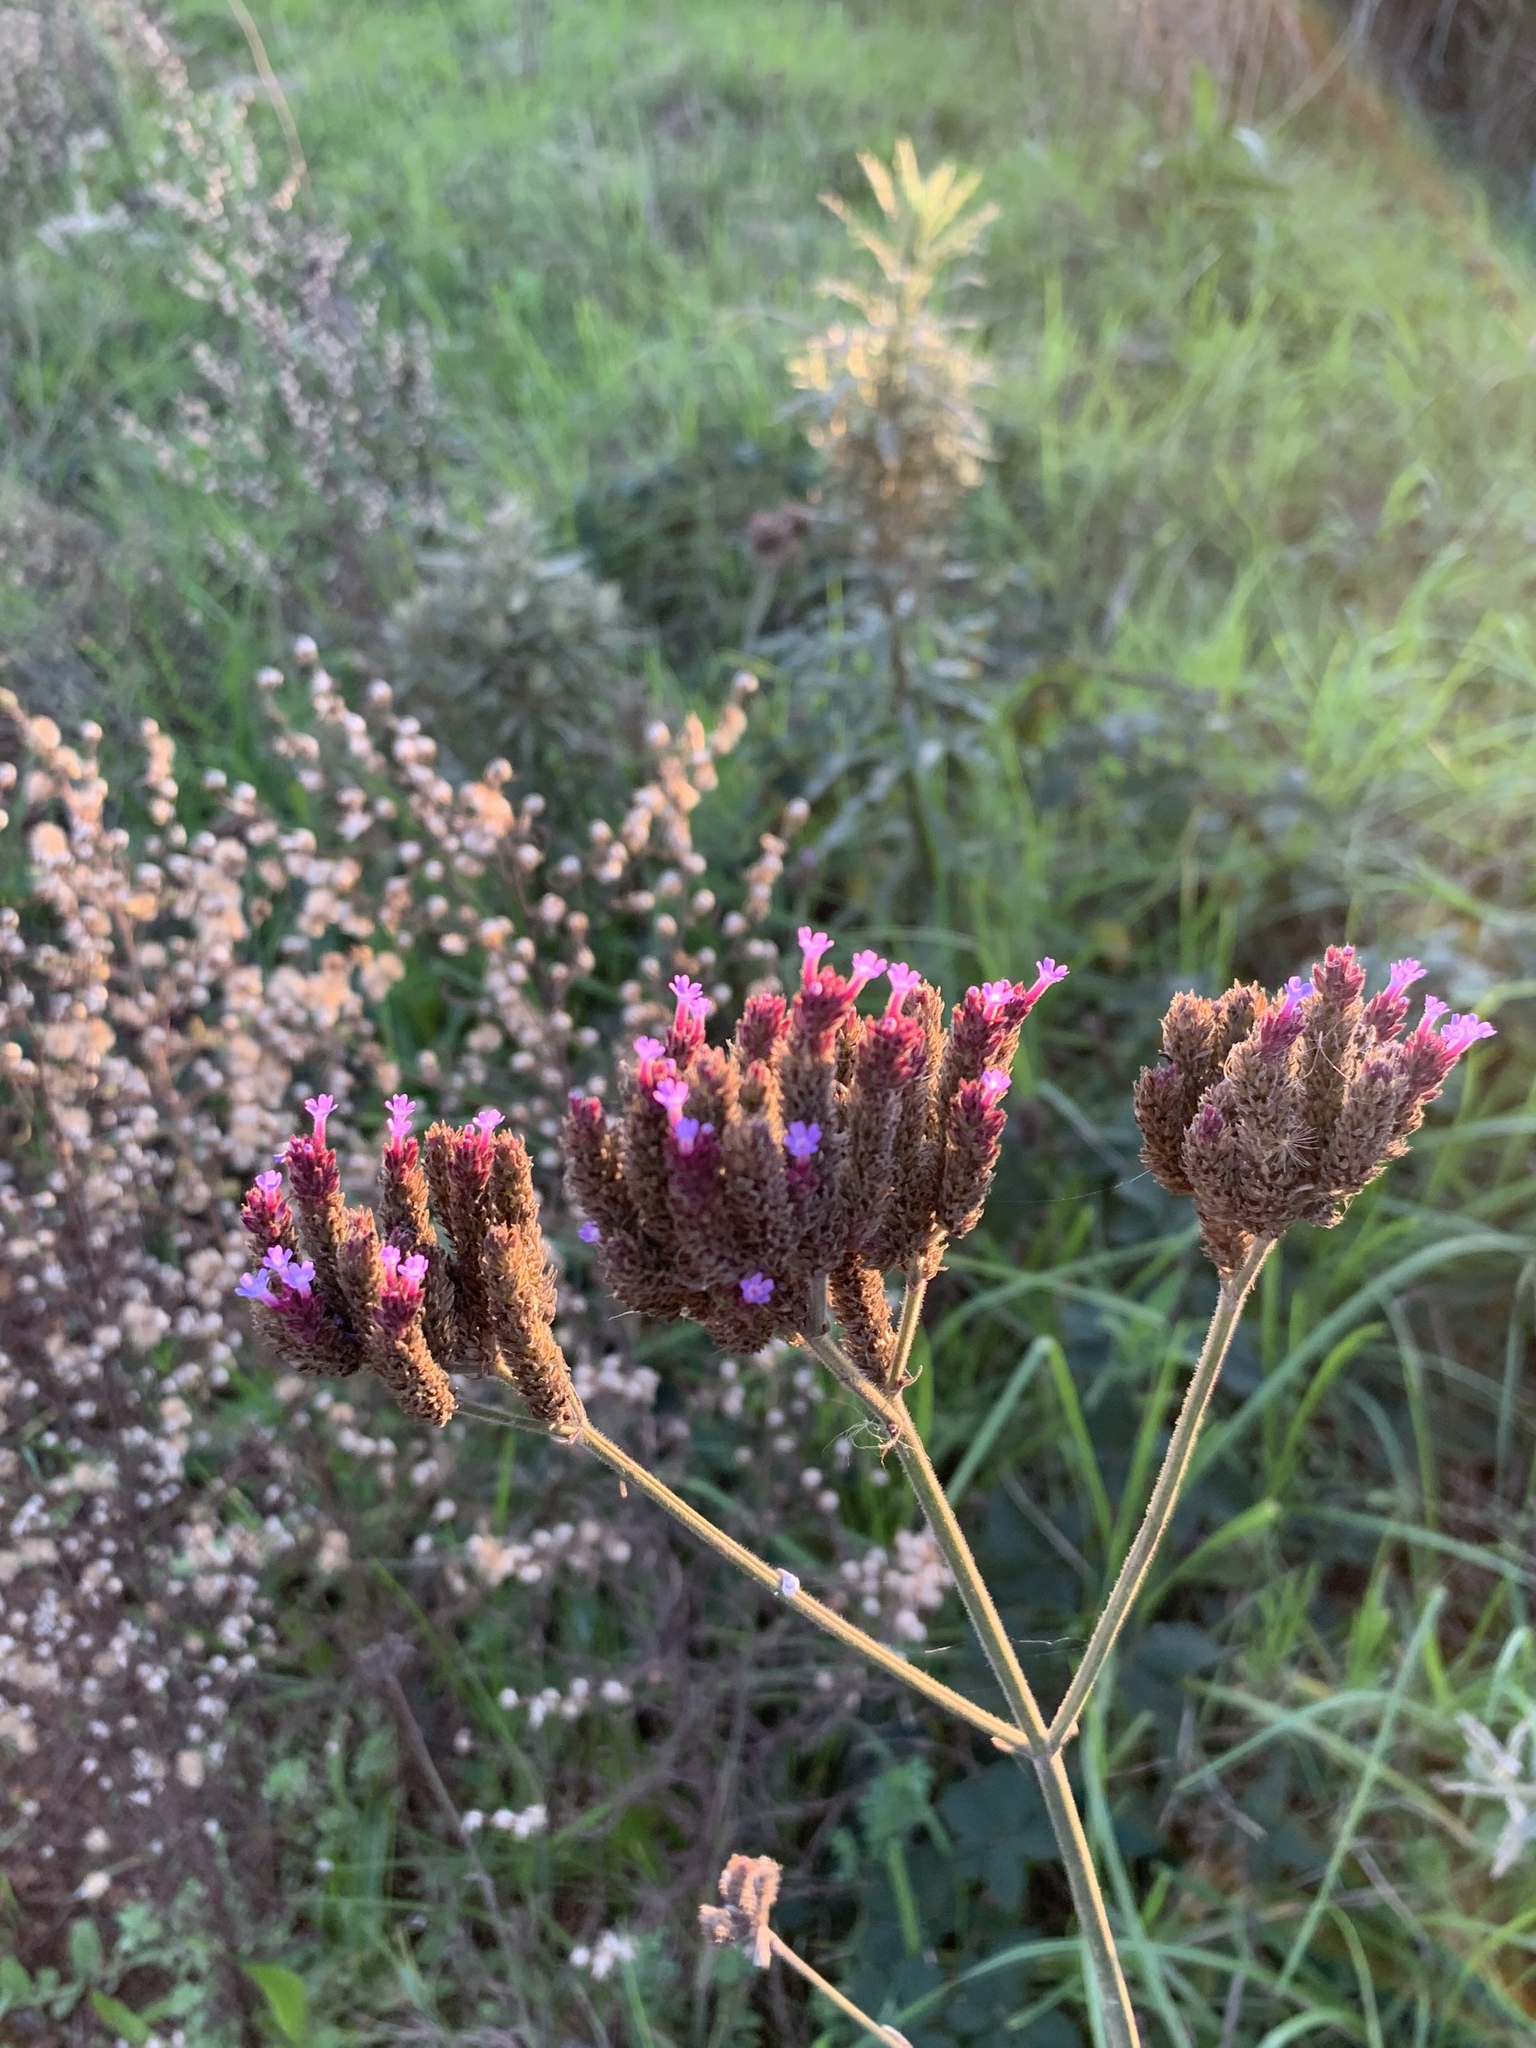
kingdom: Plantae
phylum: Tracheophyta
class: Magnoliopsida
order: Lamiales
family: Verbenaceae
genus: Verbena
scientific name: Verbena bonariensis
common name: Purpletop vervain
